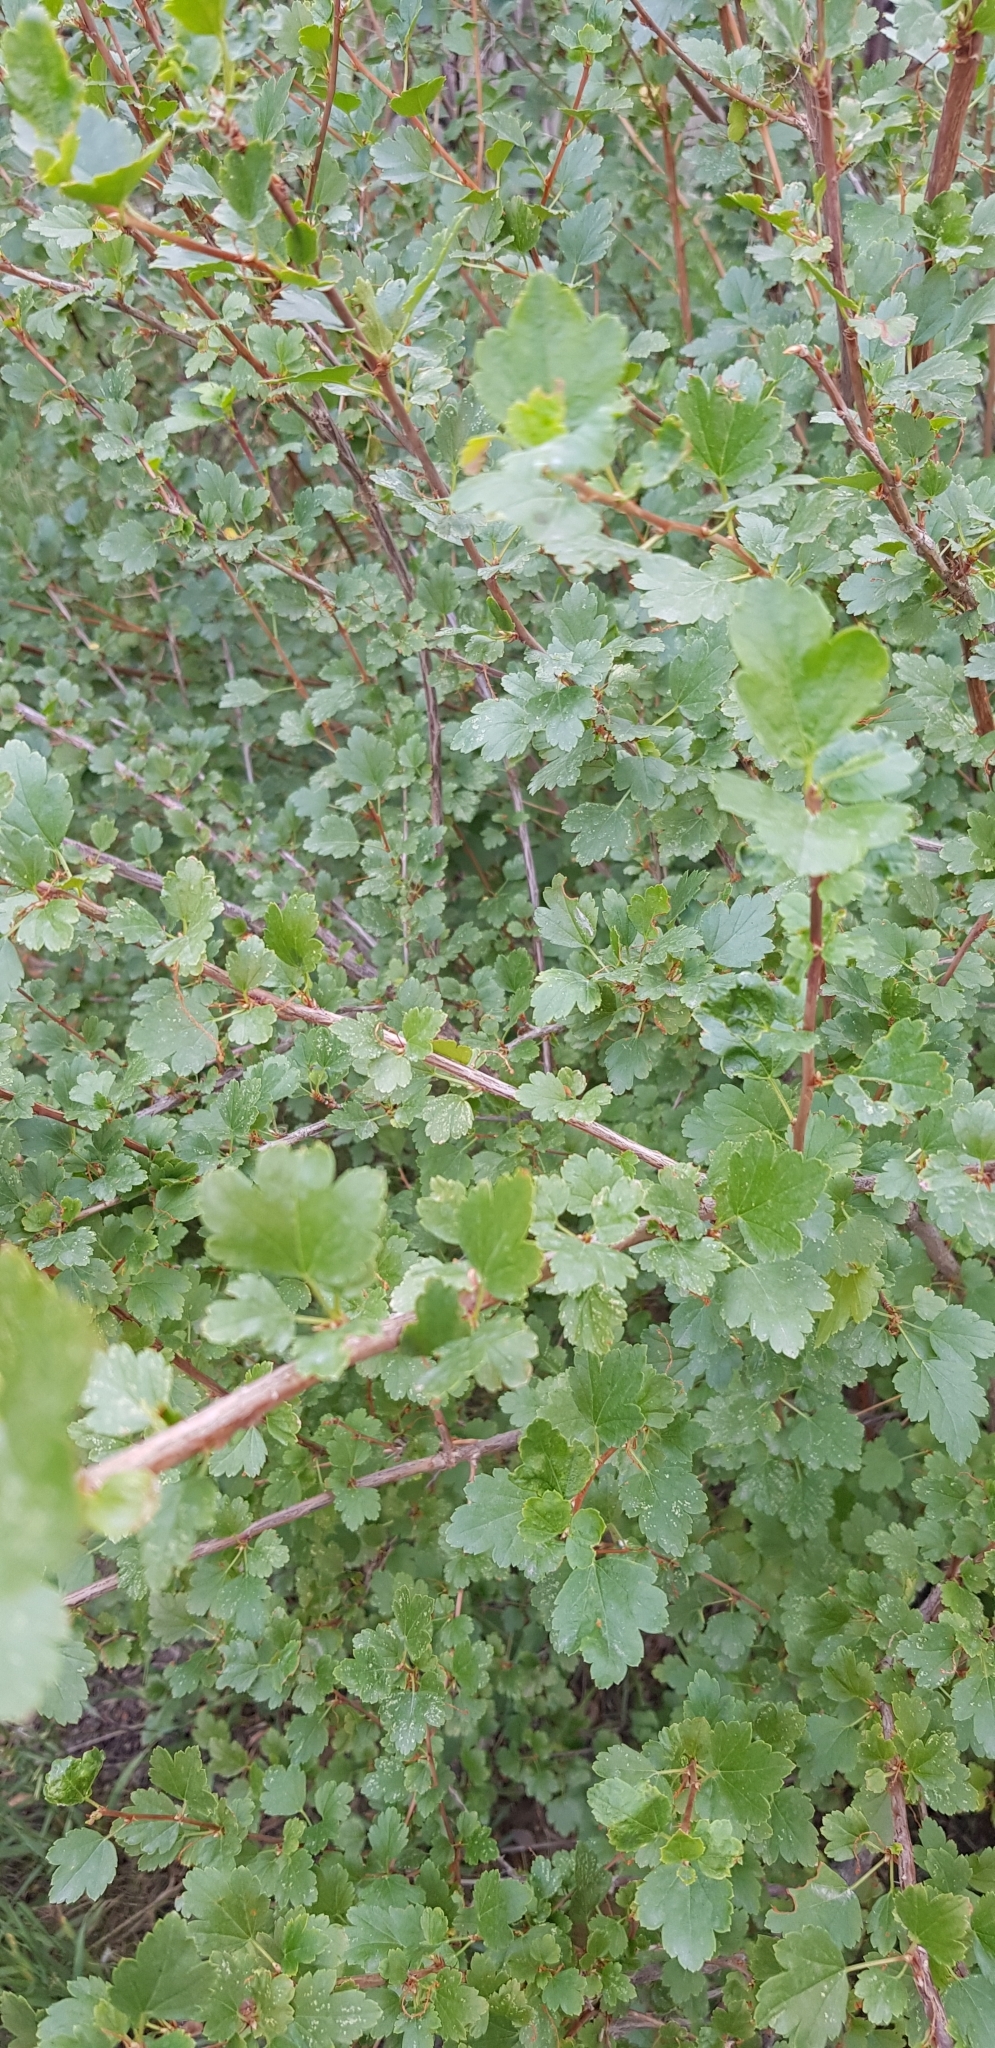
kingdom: Plantae
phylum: Tracheophyta
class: Magnoliopsida
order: Saxifragales
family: Grossulariaceae
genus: Ribes
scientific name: Ribes aciculare
